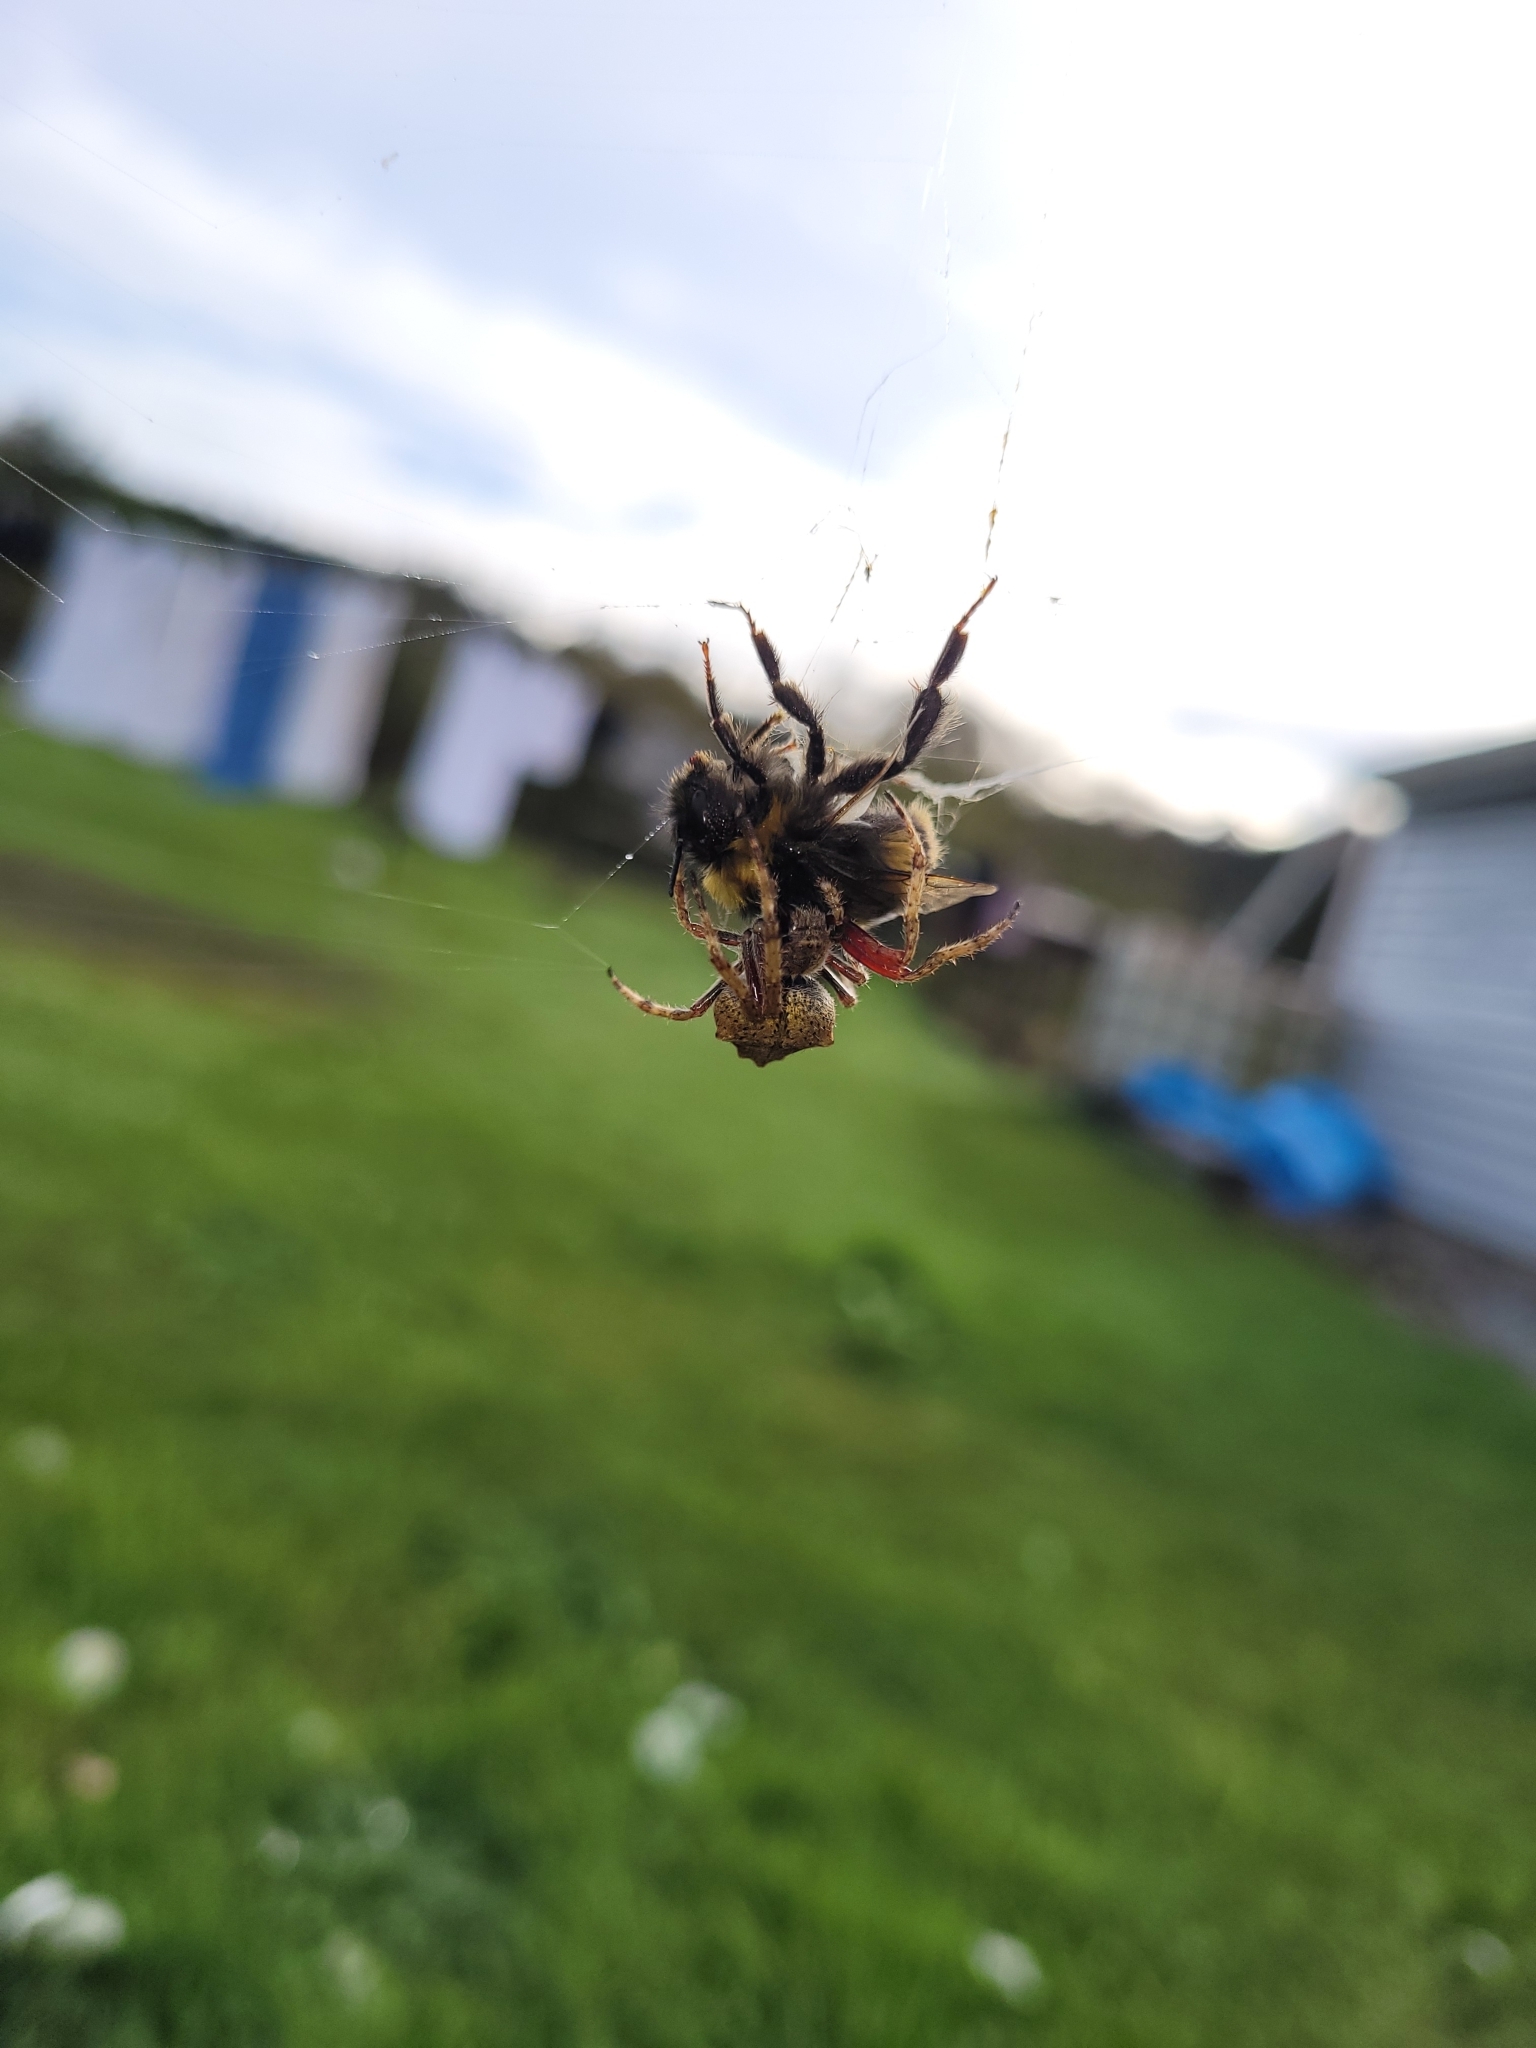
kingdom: Animalia
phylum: Arthropoda
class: Arachnida
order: Araneae
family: Araneidae
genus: Eriophora
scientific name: Eriophora pustulosa
